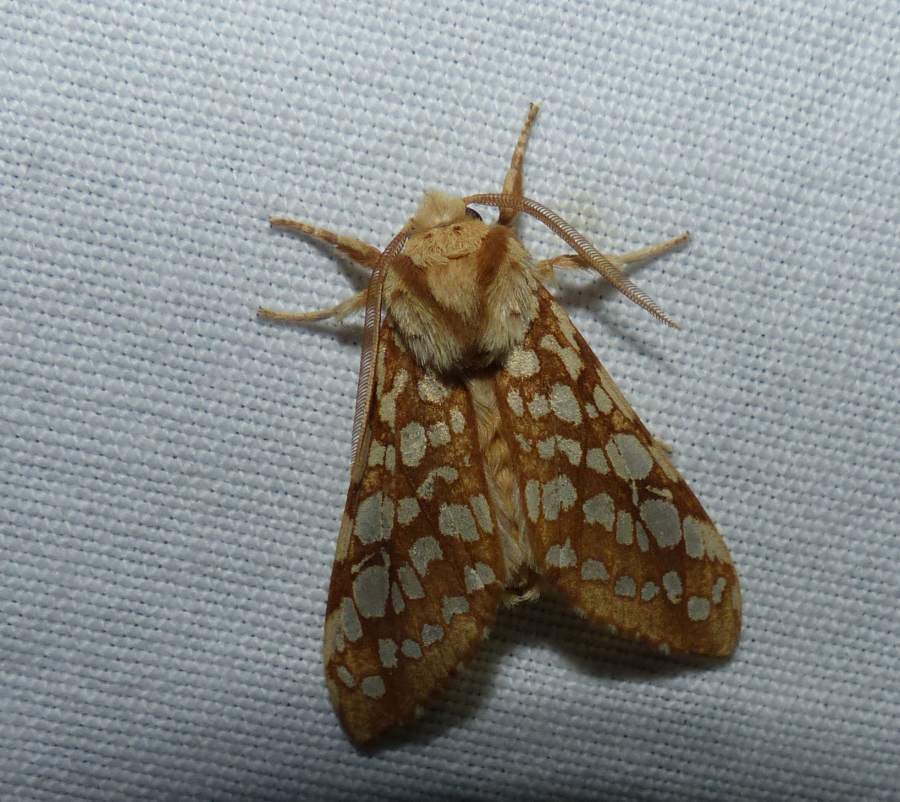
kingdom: Animalia
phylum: Arthropoda
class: Insecta
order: Lepidoptera
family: Erebidae
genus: Lophocampa
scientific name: Lophocampa caryae
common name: Hickory tussock moth
